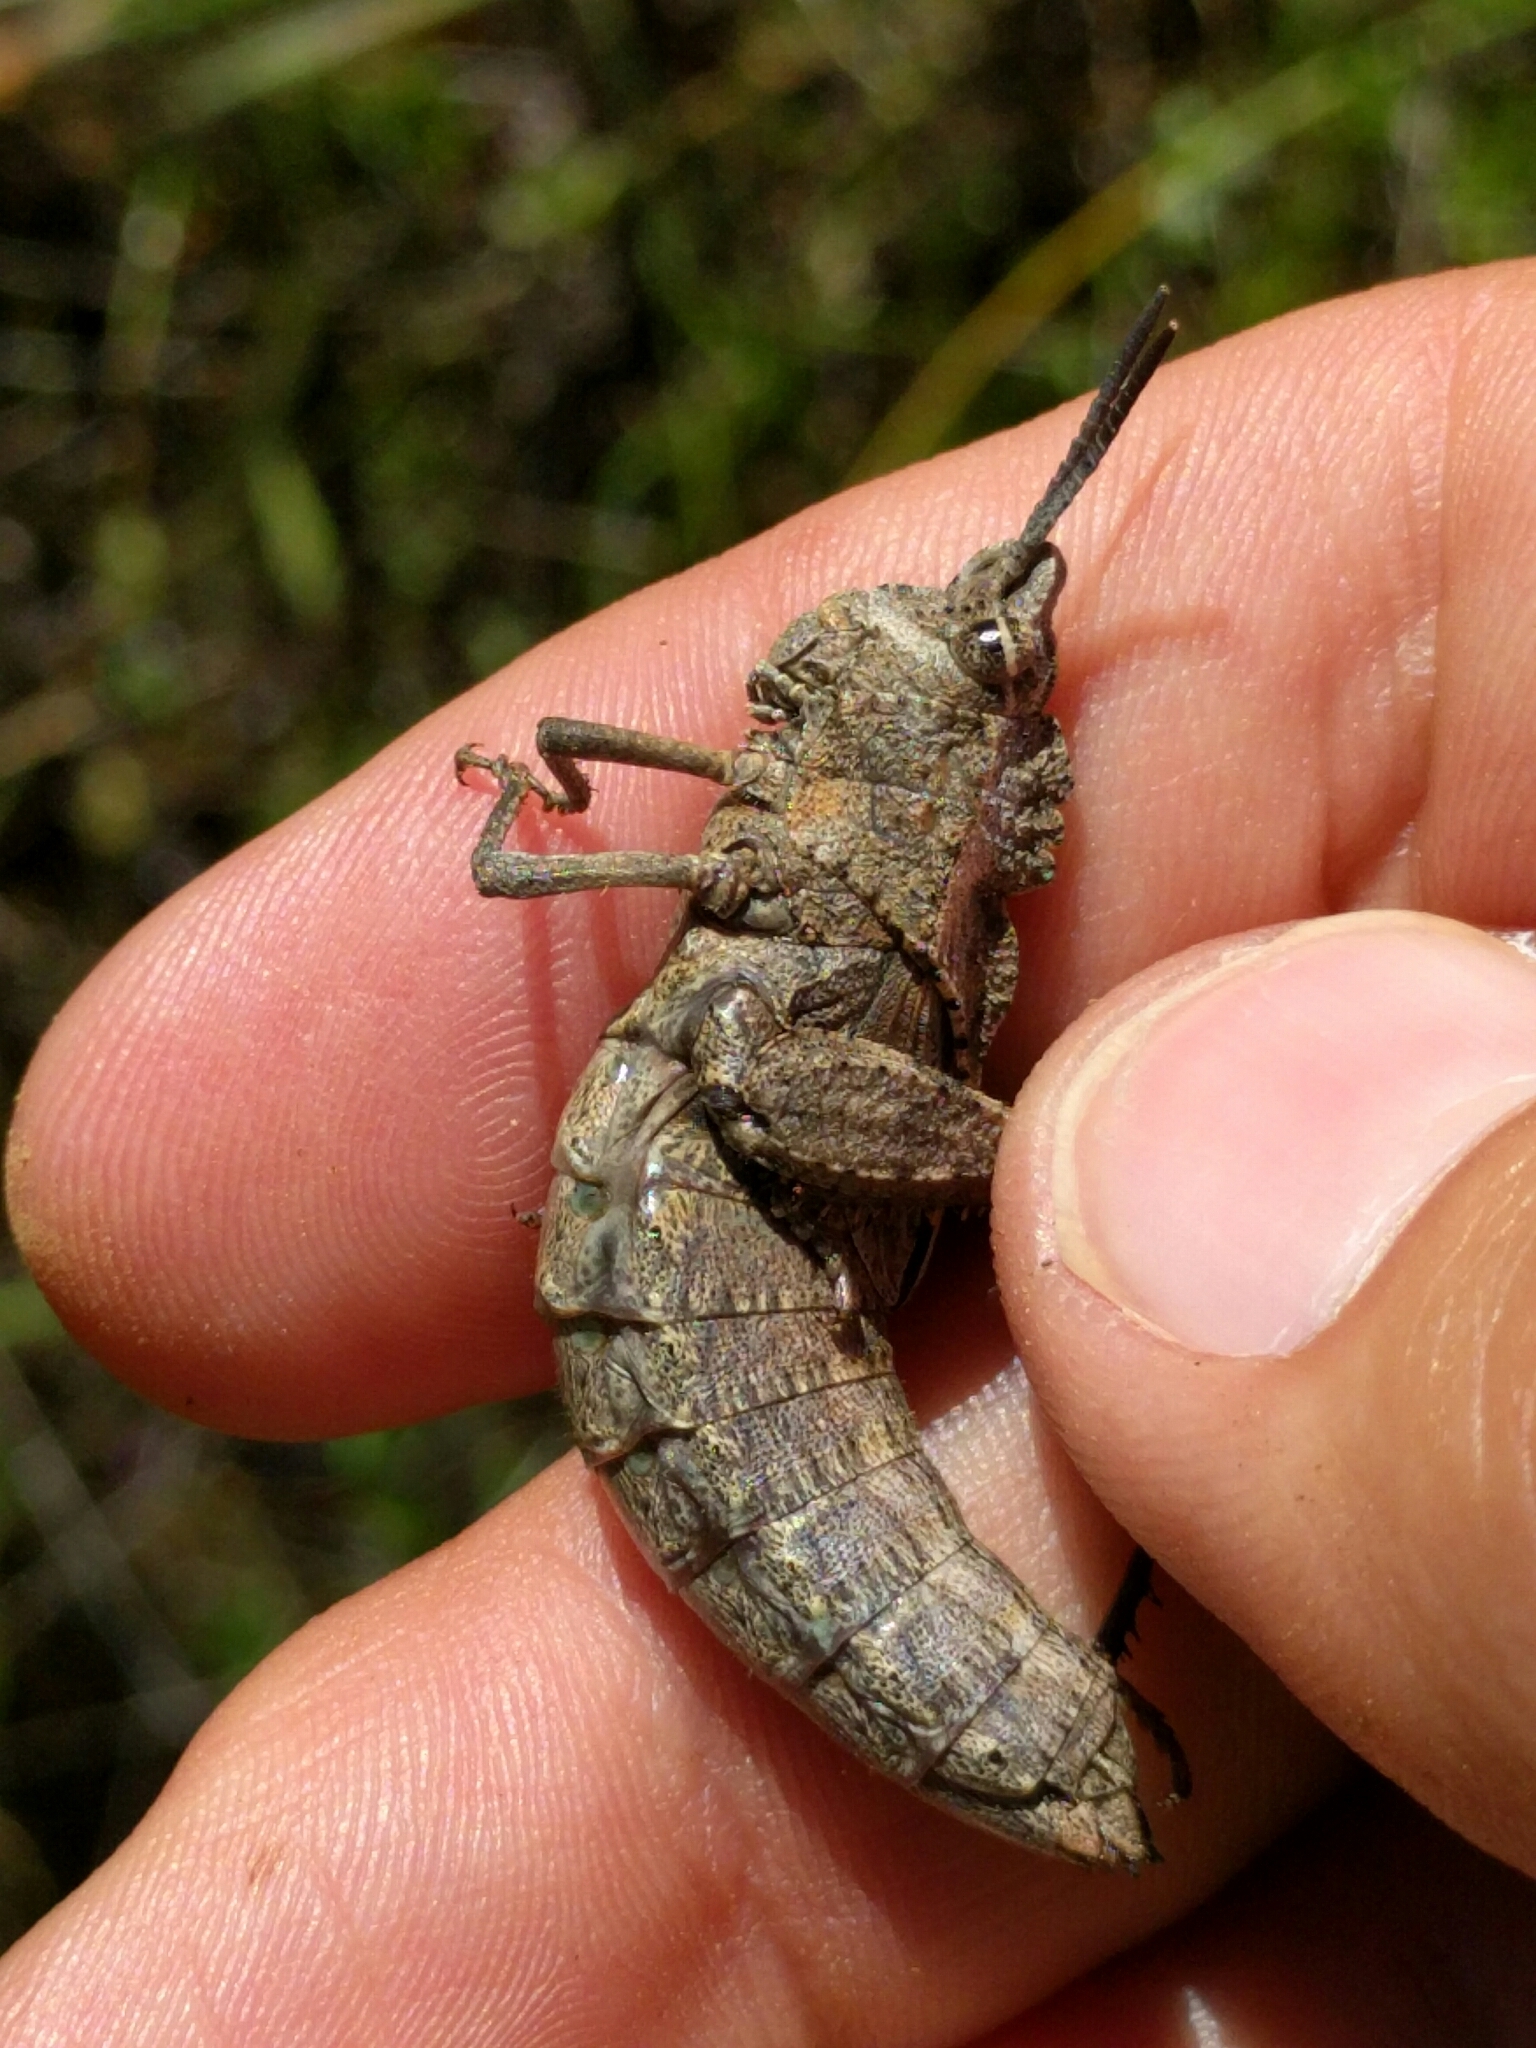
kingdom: Animalia
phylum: Arthropoda
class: Insecta
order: Orthoptera
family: Romaleidae
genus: Dracotettix
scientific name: Dracotettix monstrosus
